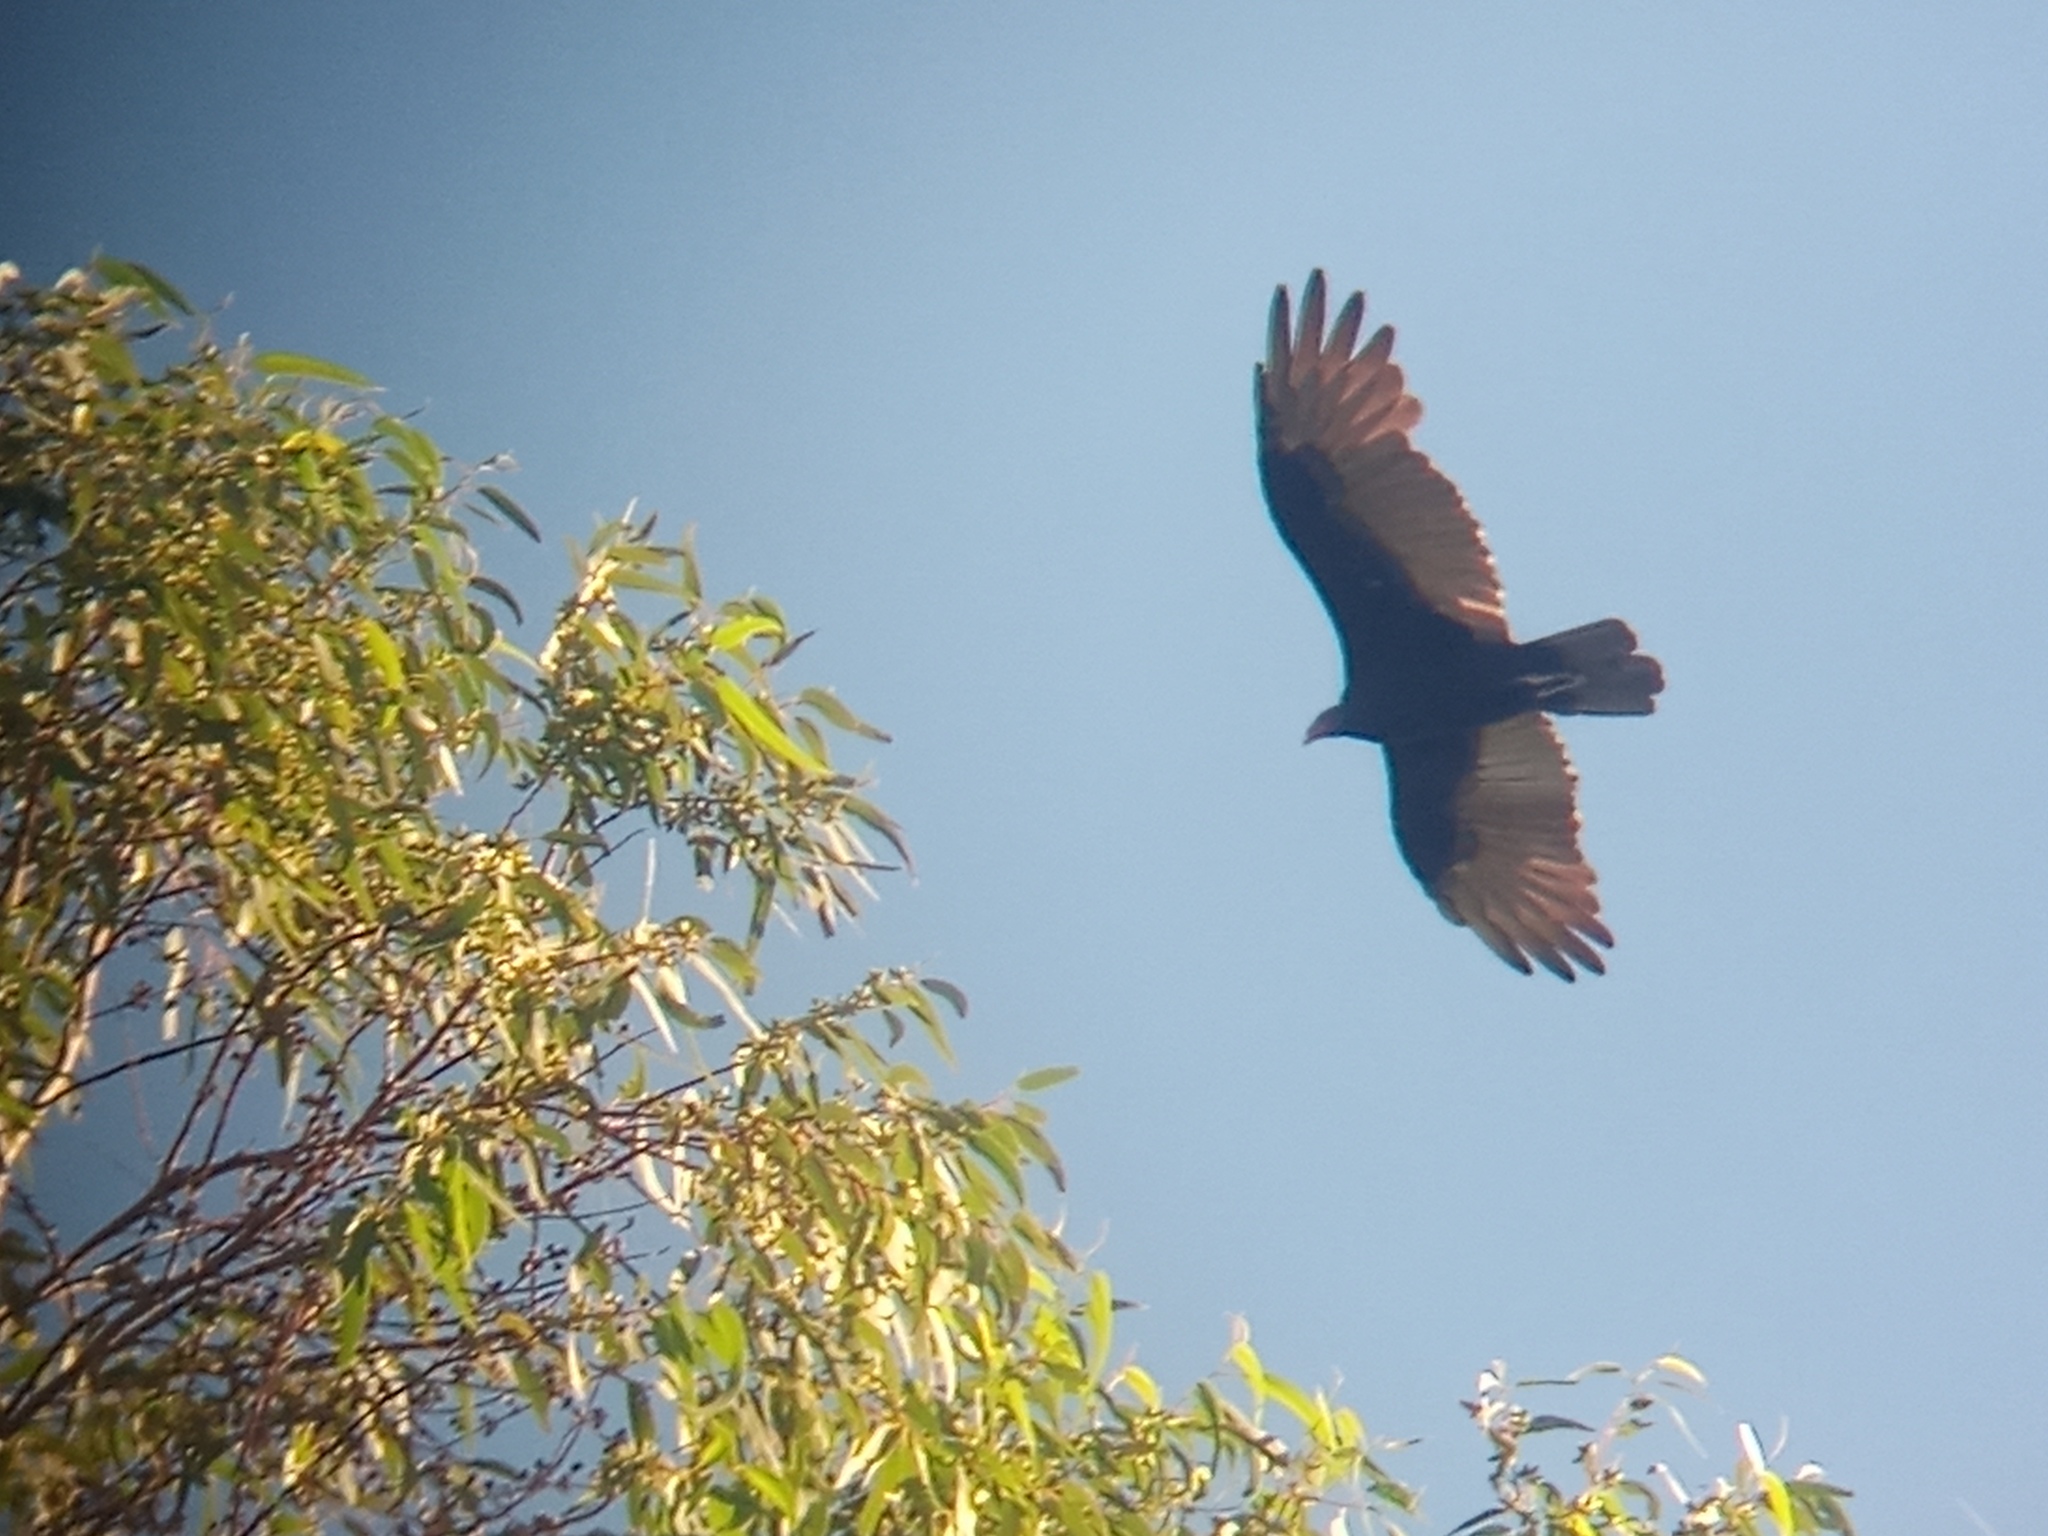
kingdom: Animalia
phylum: Chordata
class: Aves
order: Accipitriformes
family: Cathartidae
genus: Cathartes
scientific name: Cathartes aura
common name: Turkey vulture
